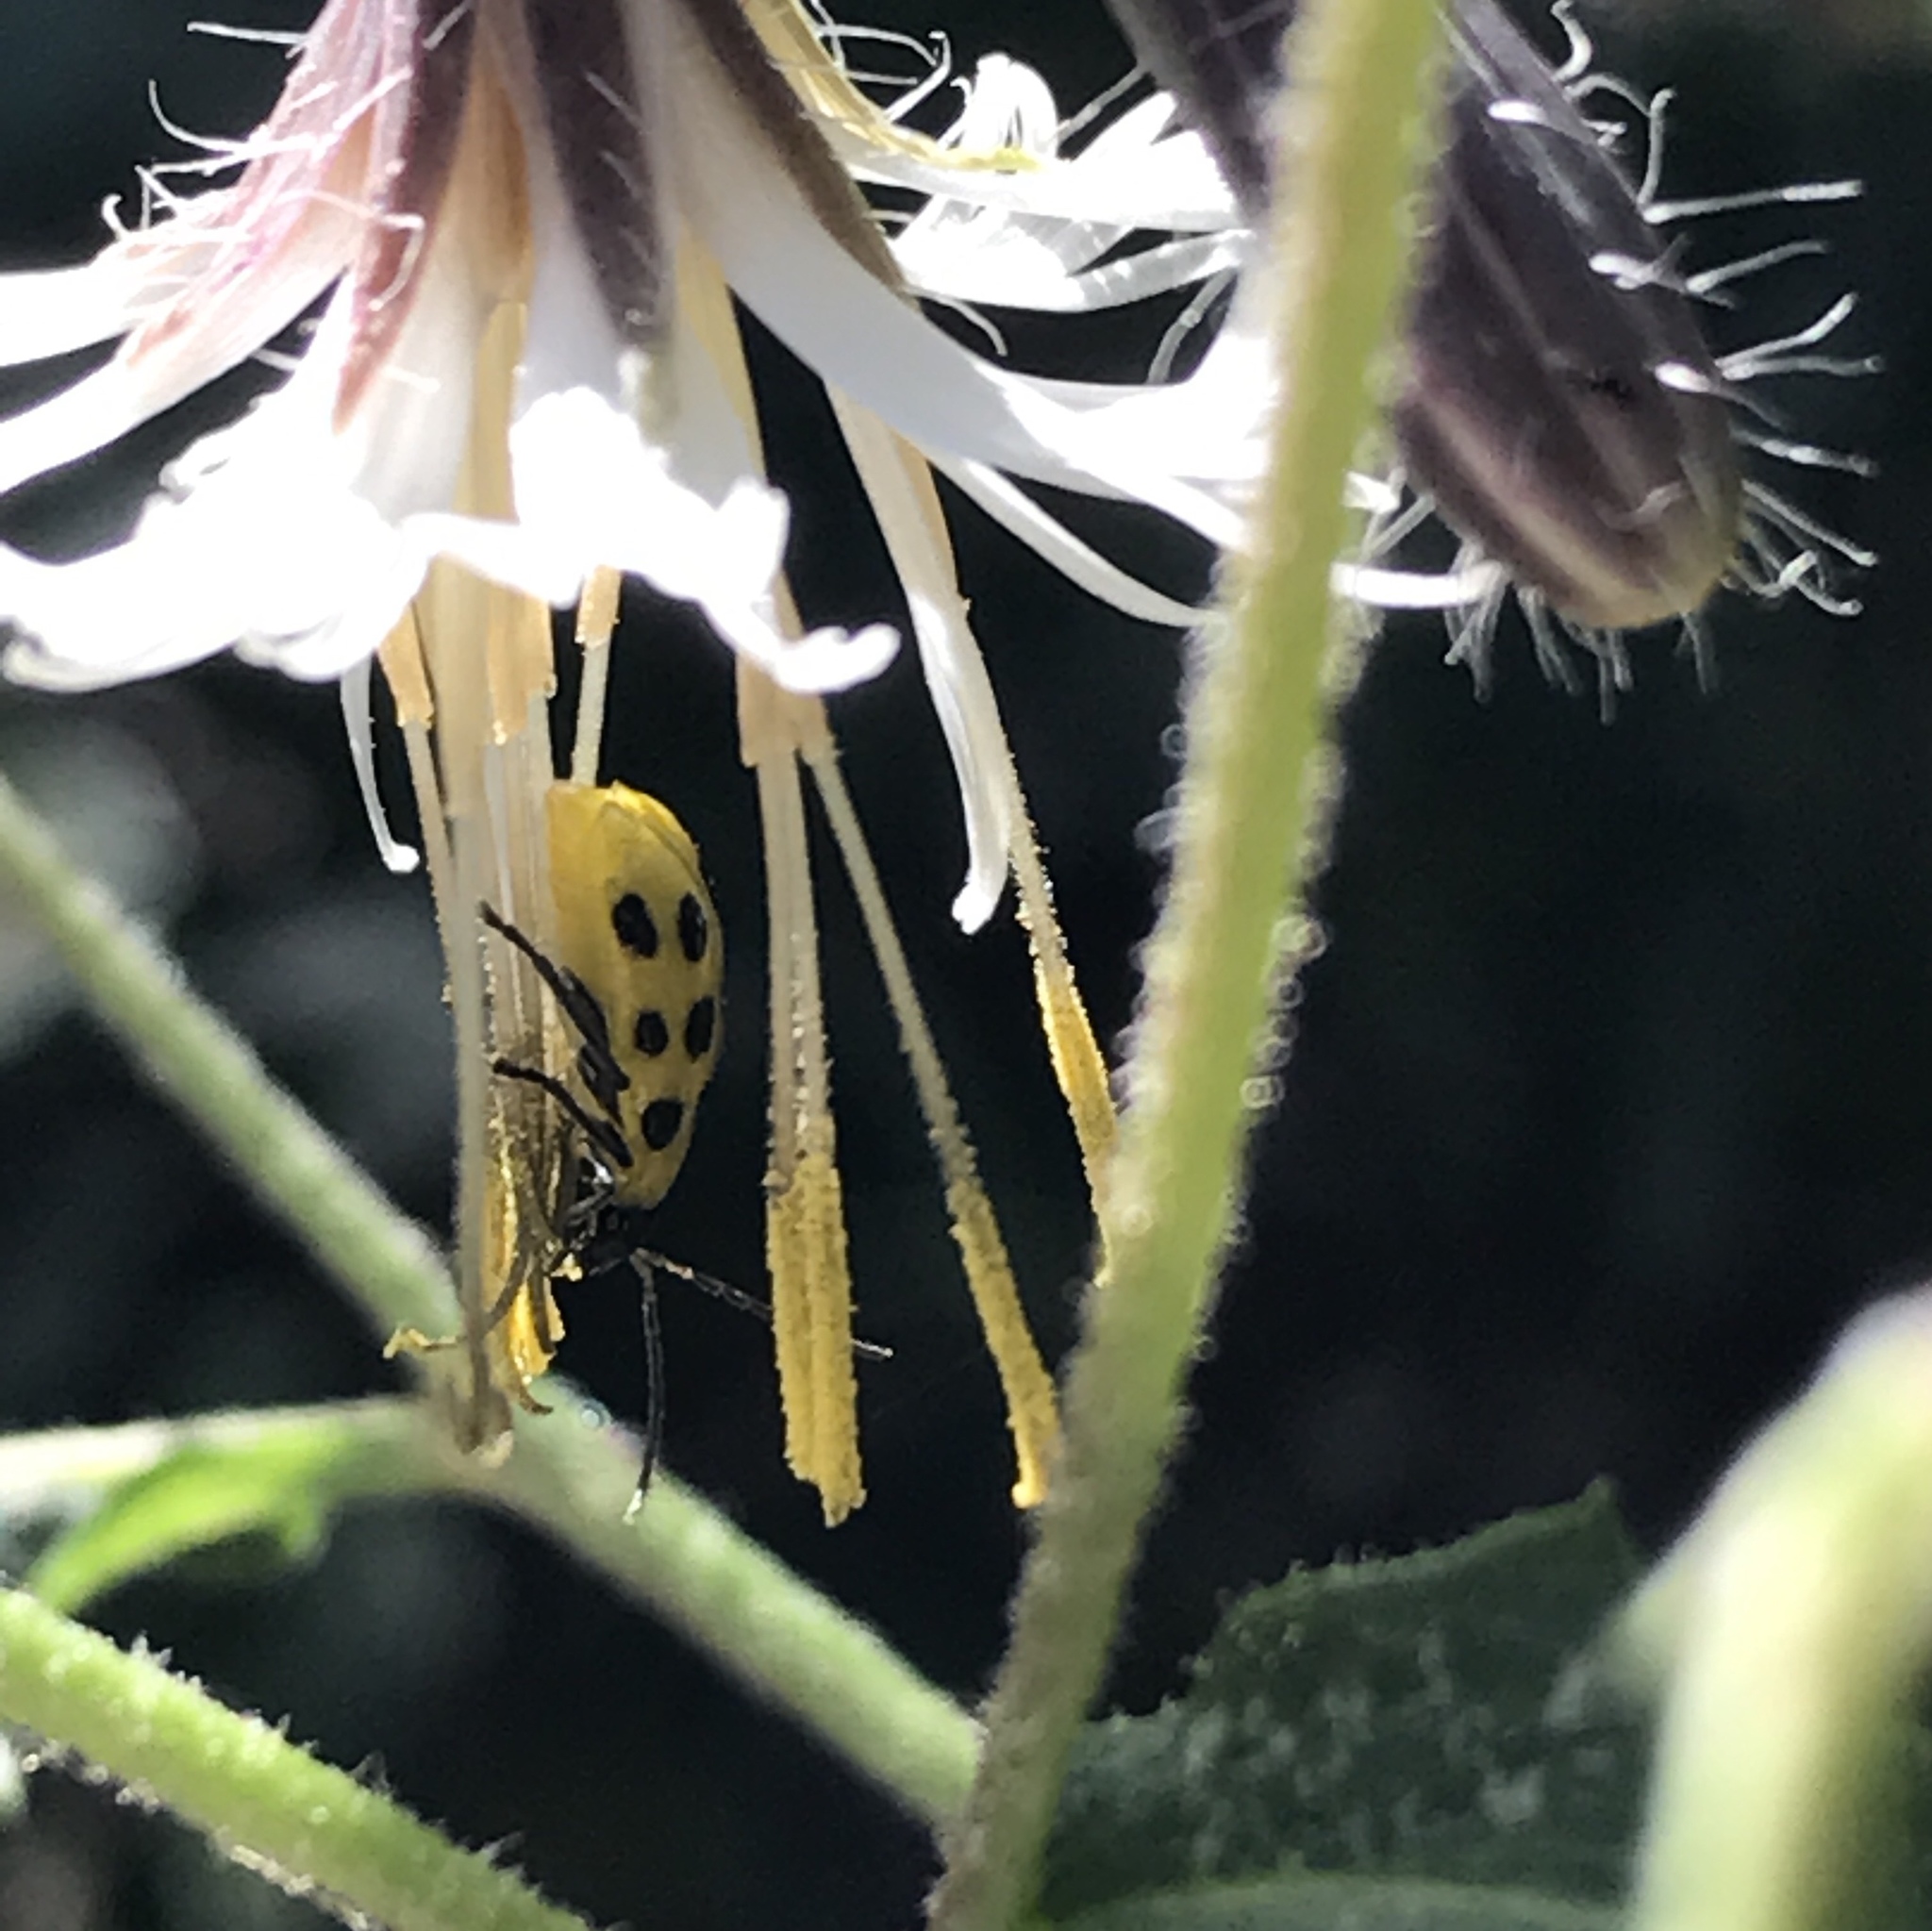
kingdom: Animalia
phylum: Arthropoda
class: Insecta
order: Coleoptera
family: Chrysomelidae
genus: Diabrotica
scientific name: Diabrotica undecimpunctata
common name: Spotted cucumber beetle
